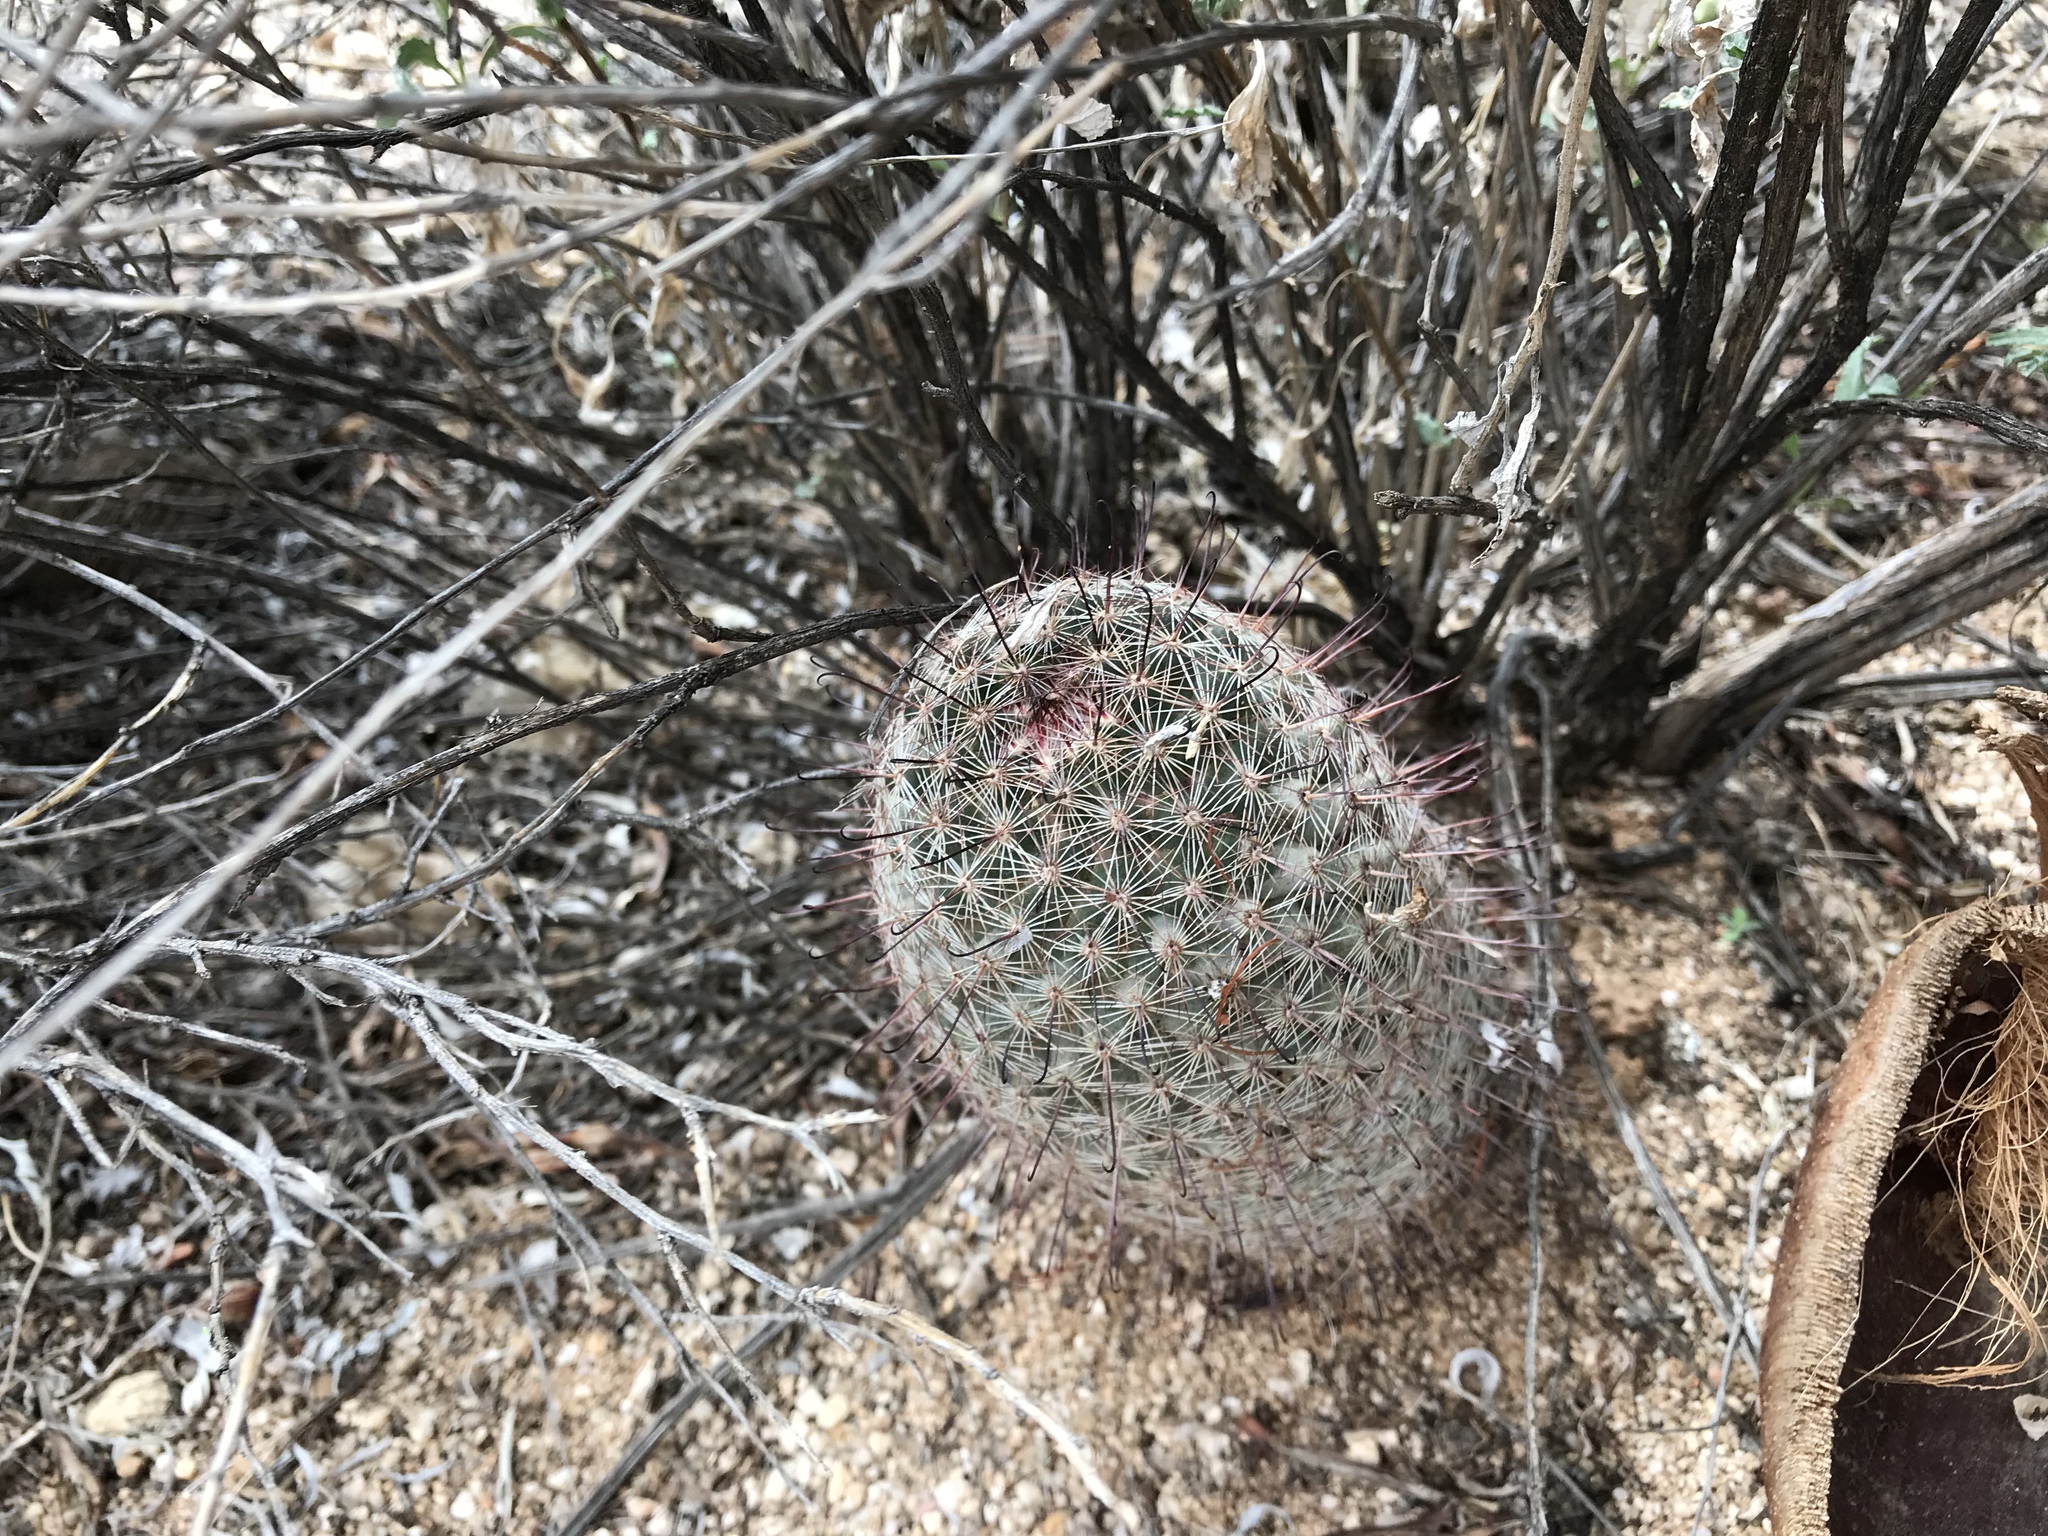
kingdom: Plantae
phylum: Tracheophyta
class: Magnoliopsida
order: Caryophyllales
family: Cactaceae
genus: Cochemiea
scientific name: Cochemiea grahamii
